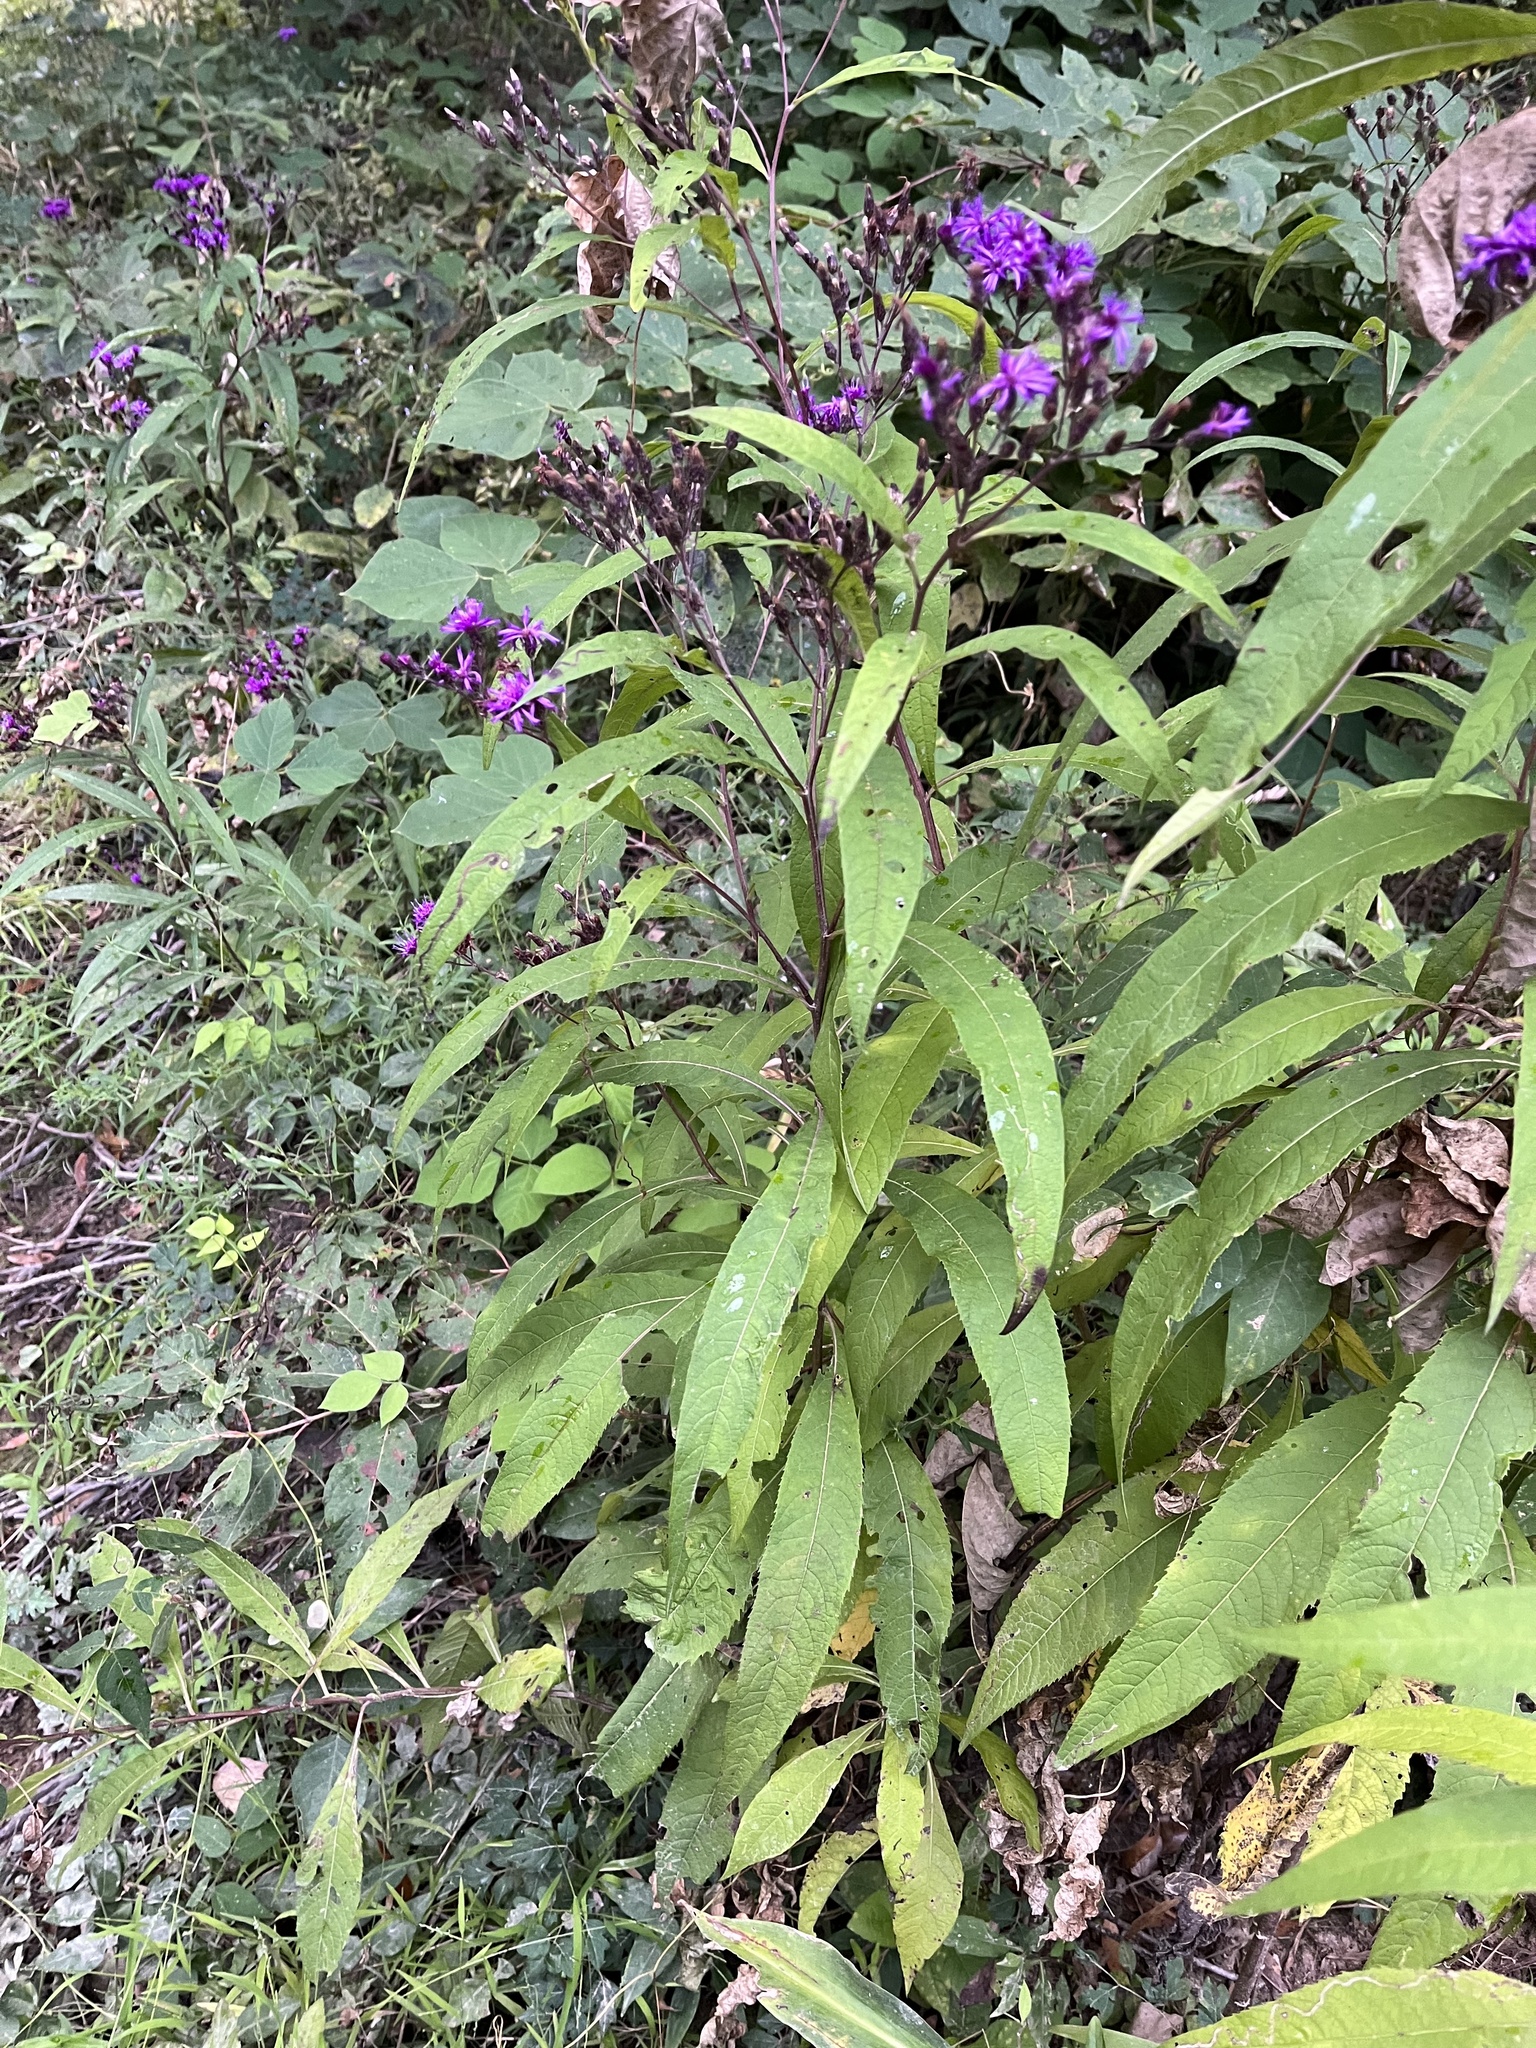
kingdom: Plantae
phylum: Tracheophyta
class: Magnoliopsida
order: Asterales
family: Asteraceae
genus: Vernonia
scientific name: Vernonia gigantea
